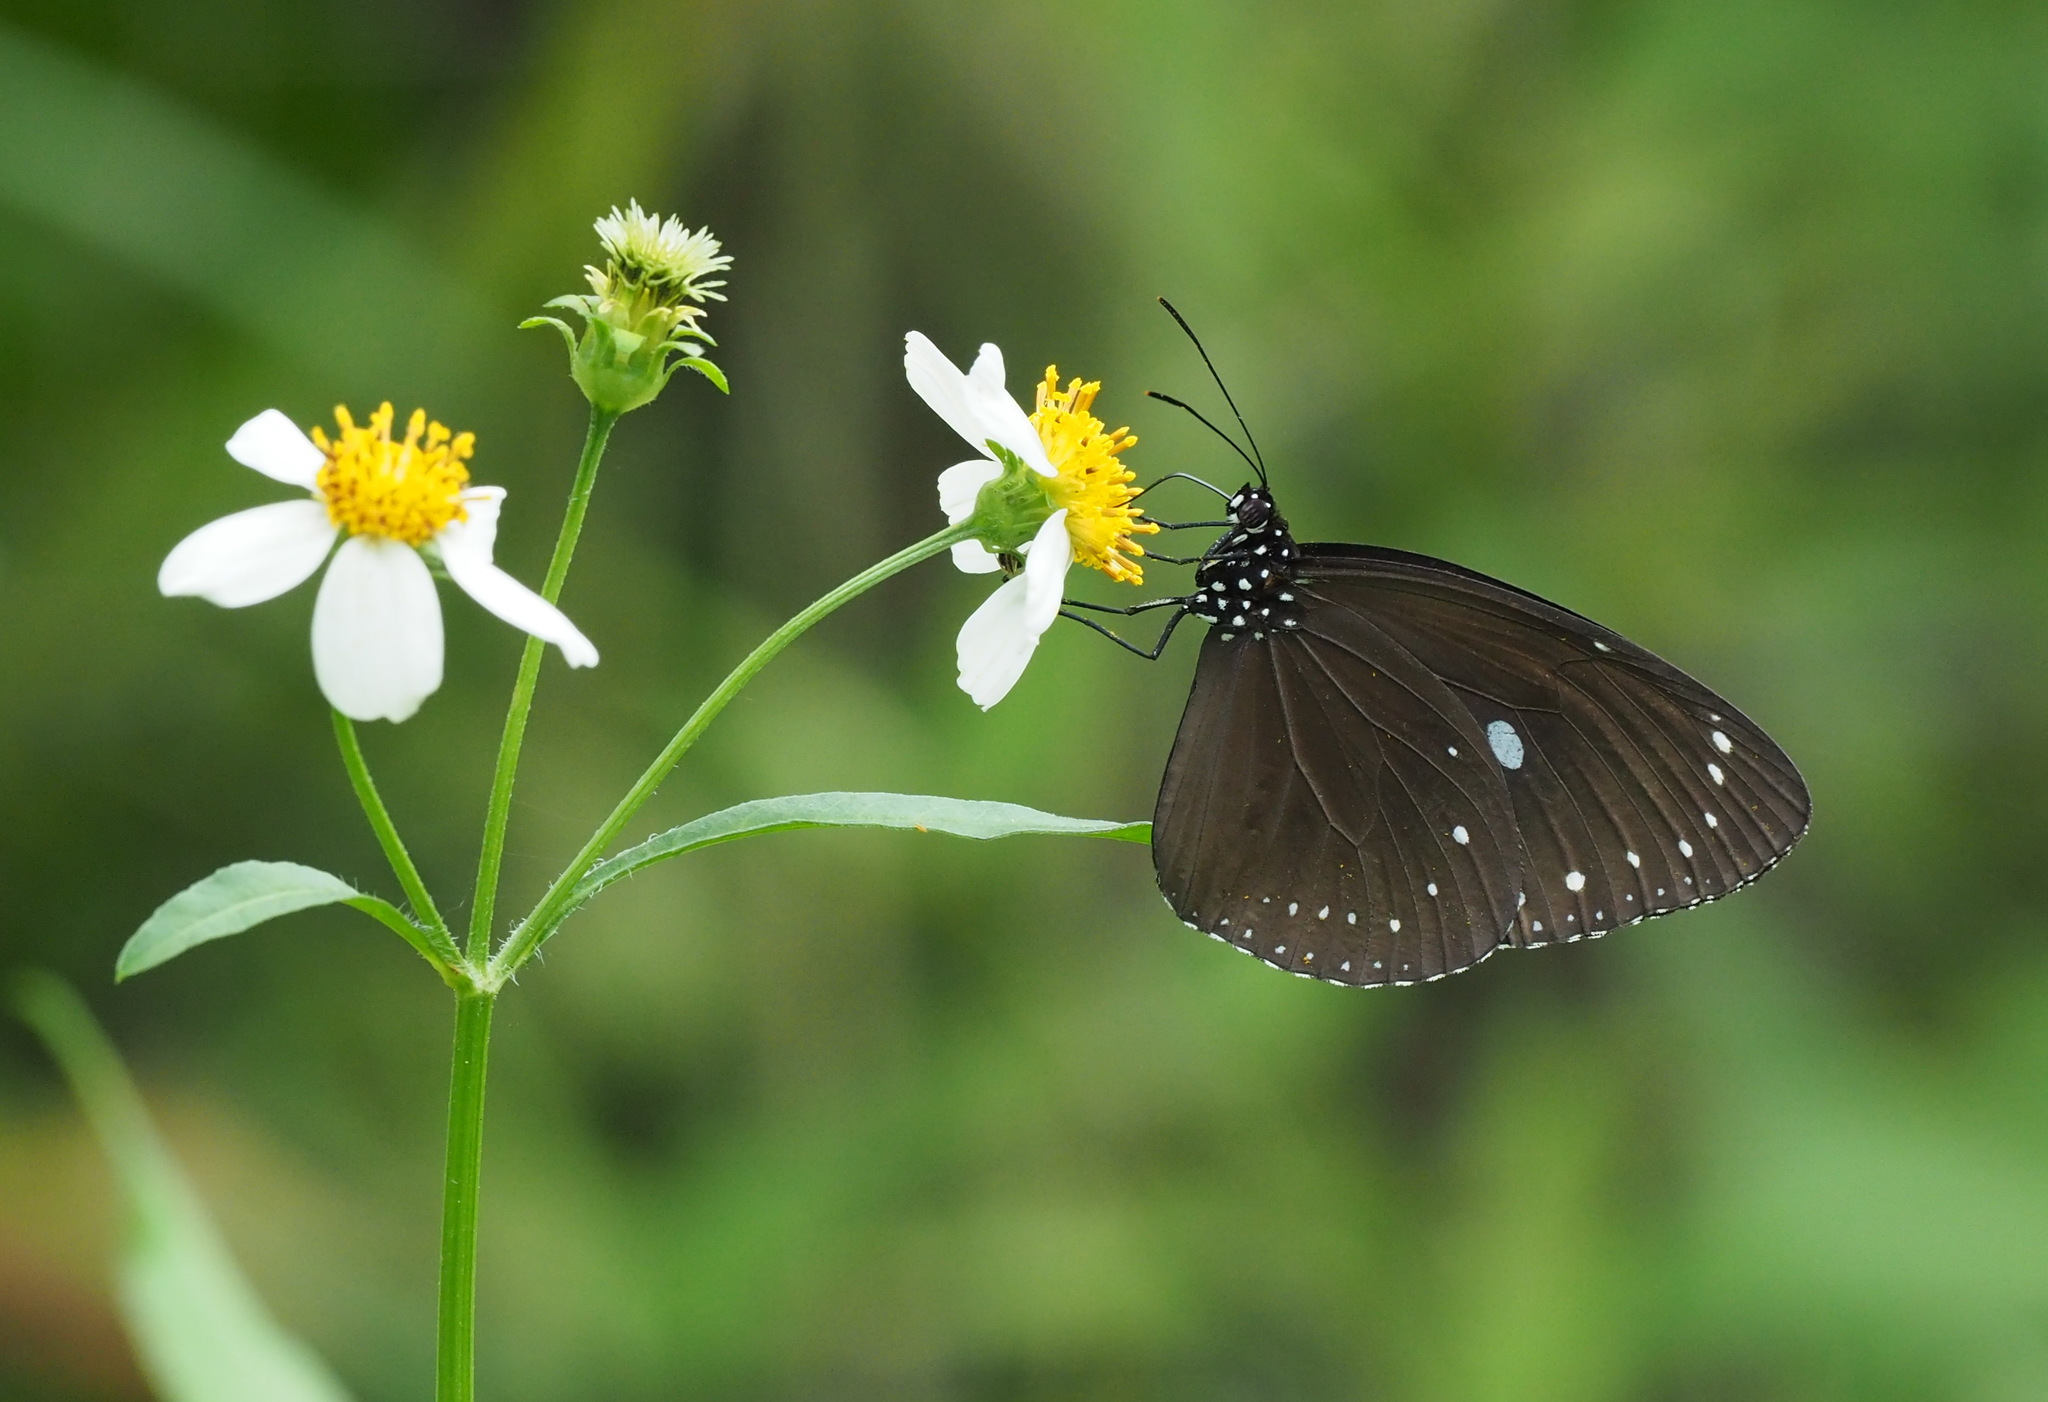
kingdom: Animalia
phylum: Arthropoda
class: Insecta
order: Lepidoptera
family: Nymphalidae
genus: Euploea
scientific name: Euploea tulliolus
